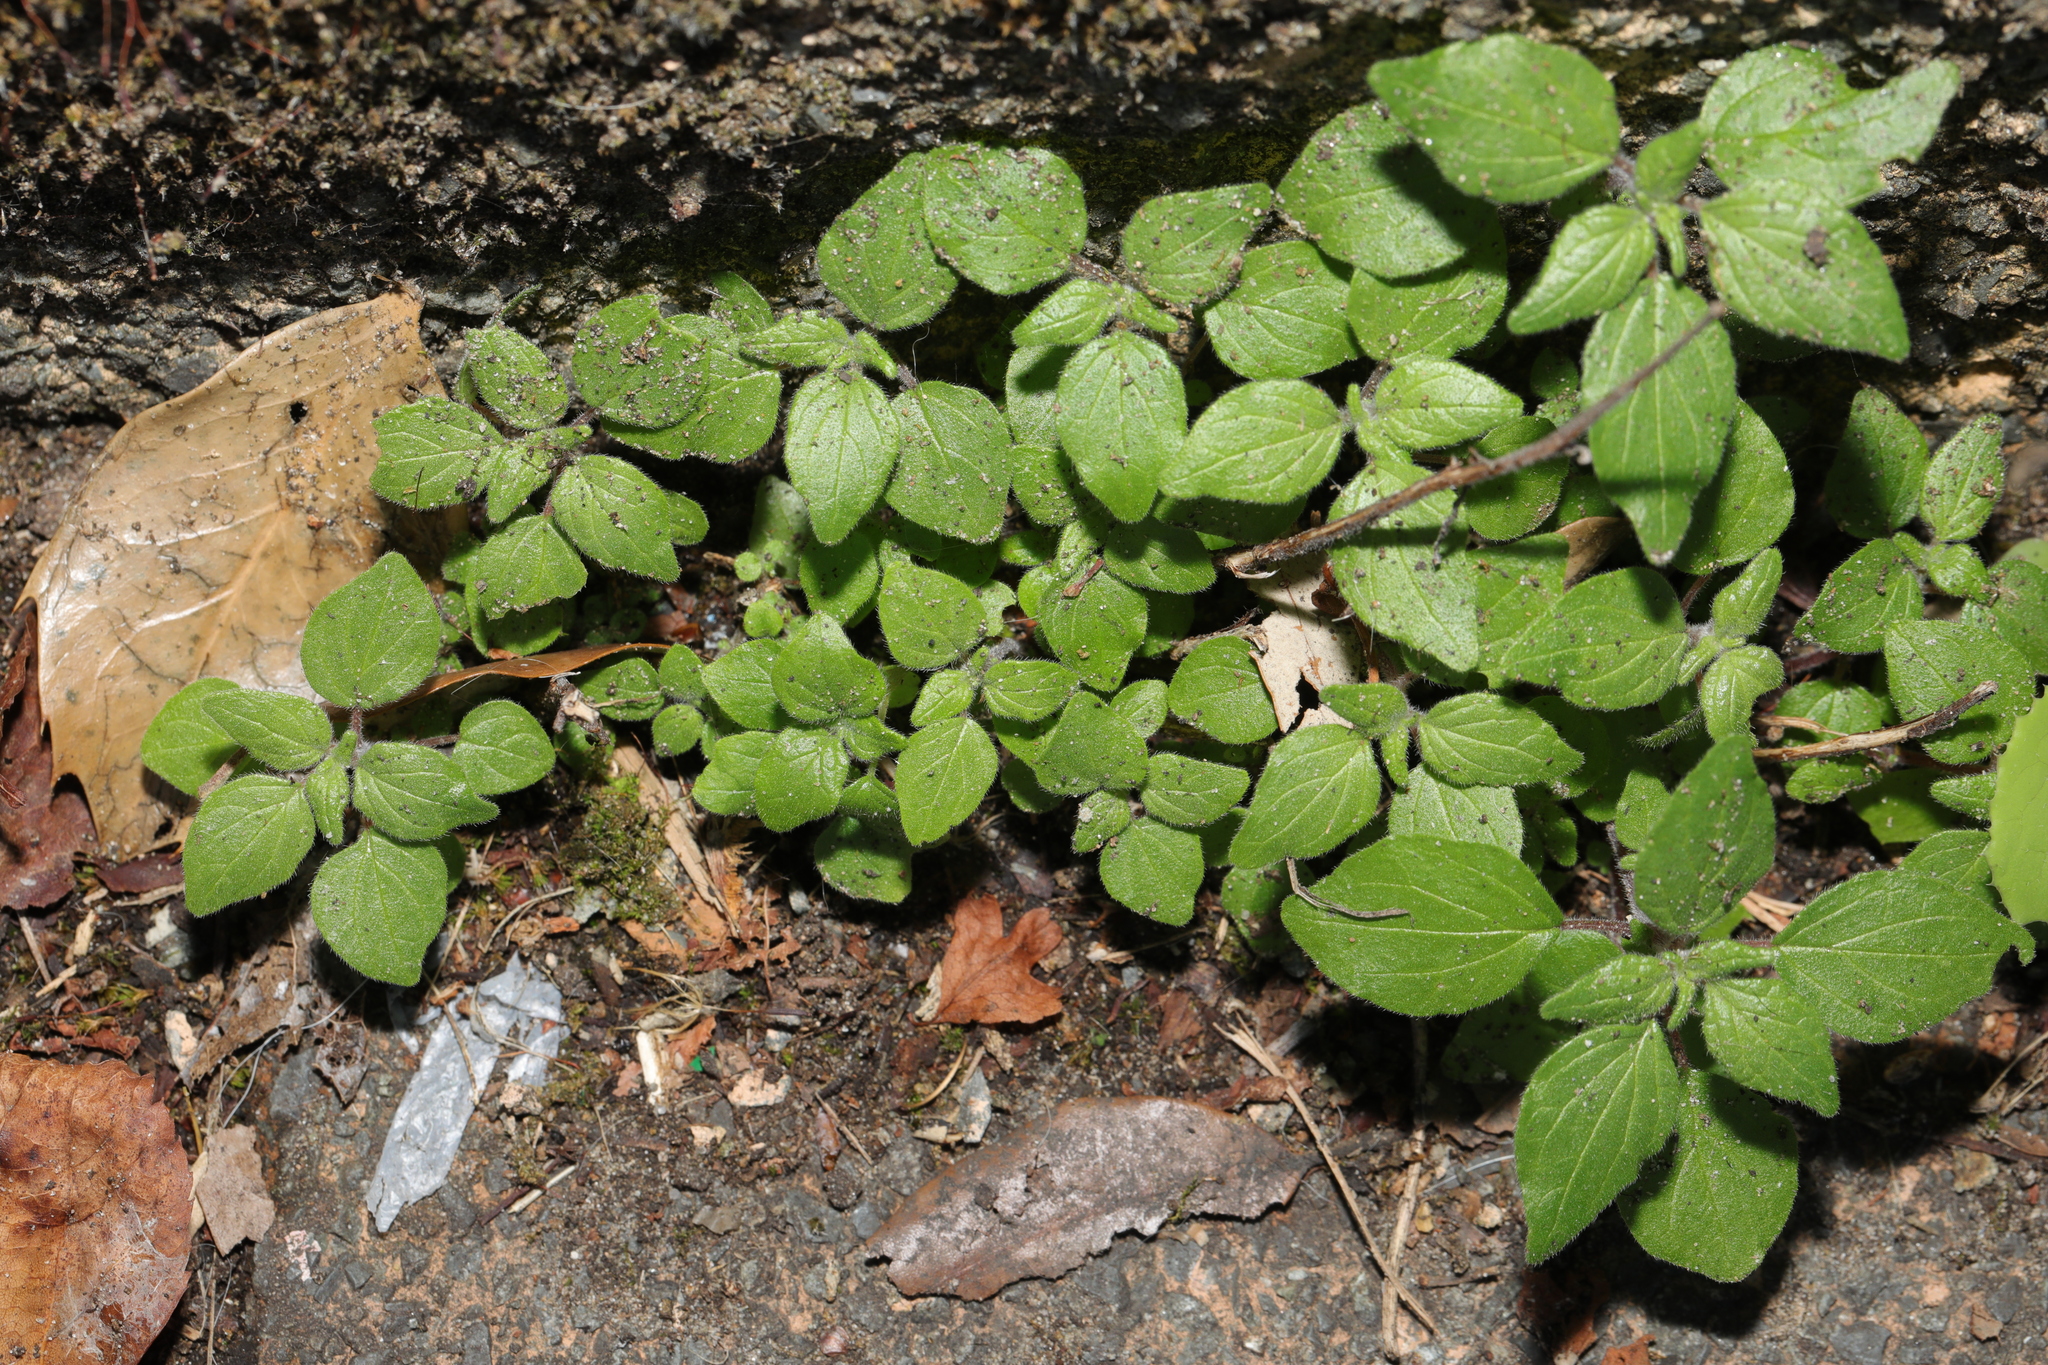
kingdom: Plantae
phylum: Tracheophyta
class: Magnoliopsida
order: Rosales
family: Urticaceae
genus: Parietaria
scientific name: Parietaria judaica
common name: Pellitory-of-the-wall
